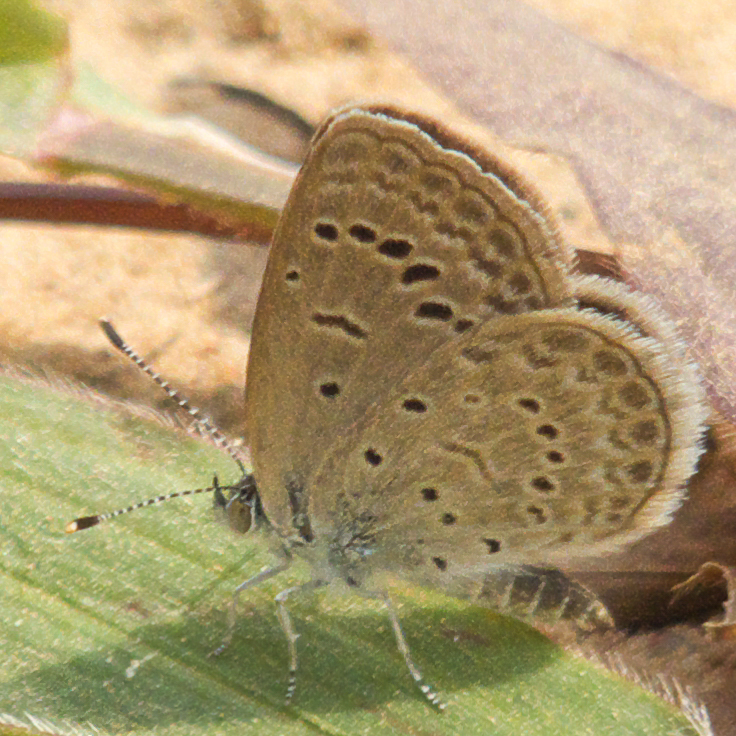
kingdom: Animalia
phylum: Arthropoda
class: Insecta
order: Lepidoptera
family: Lycaenidae
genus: Zizeeria
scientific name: Zizeeria karsandra
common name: Dark grass blue
